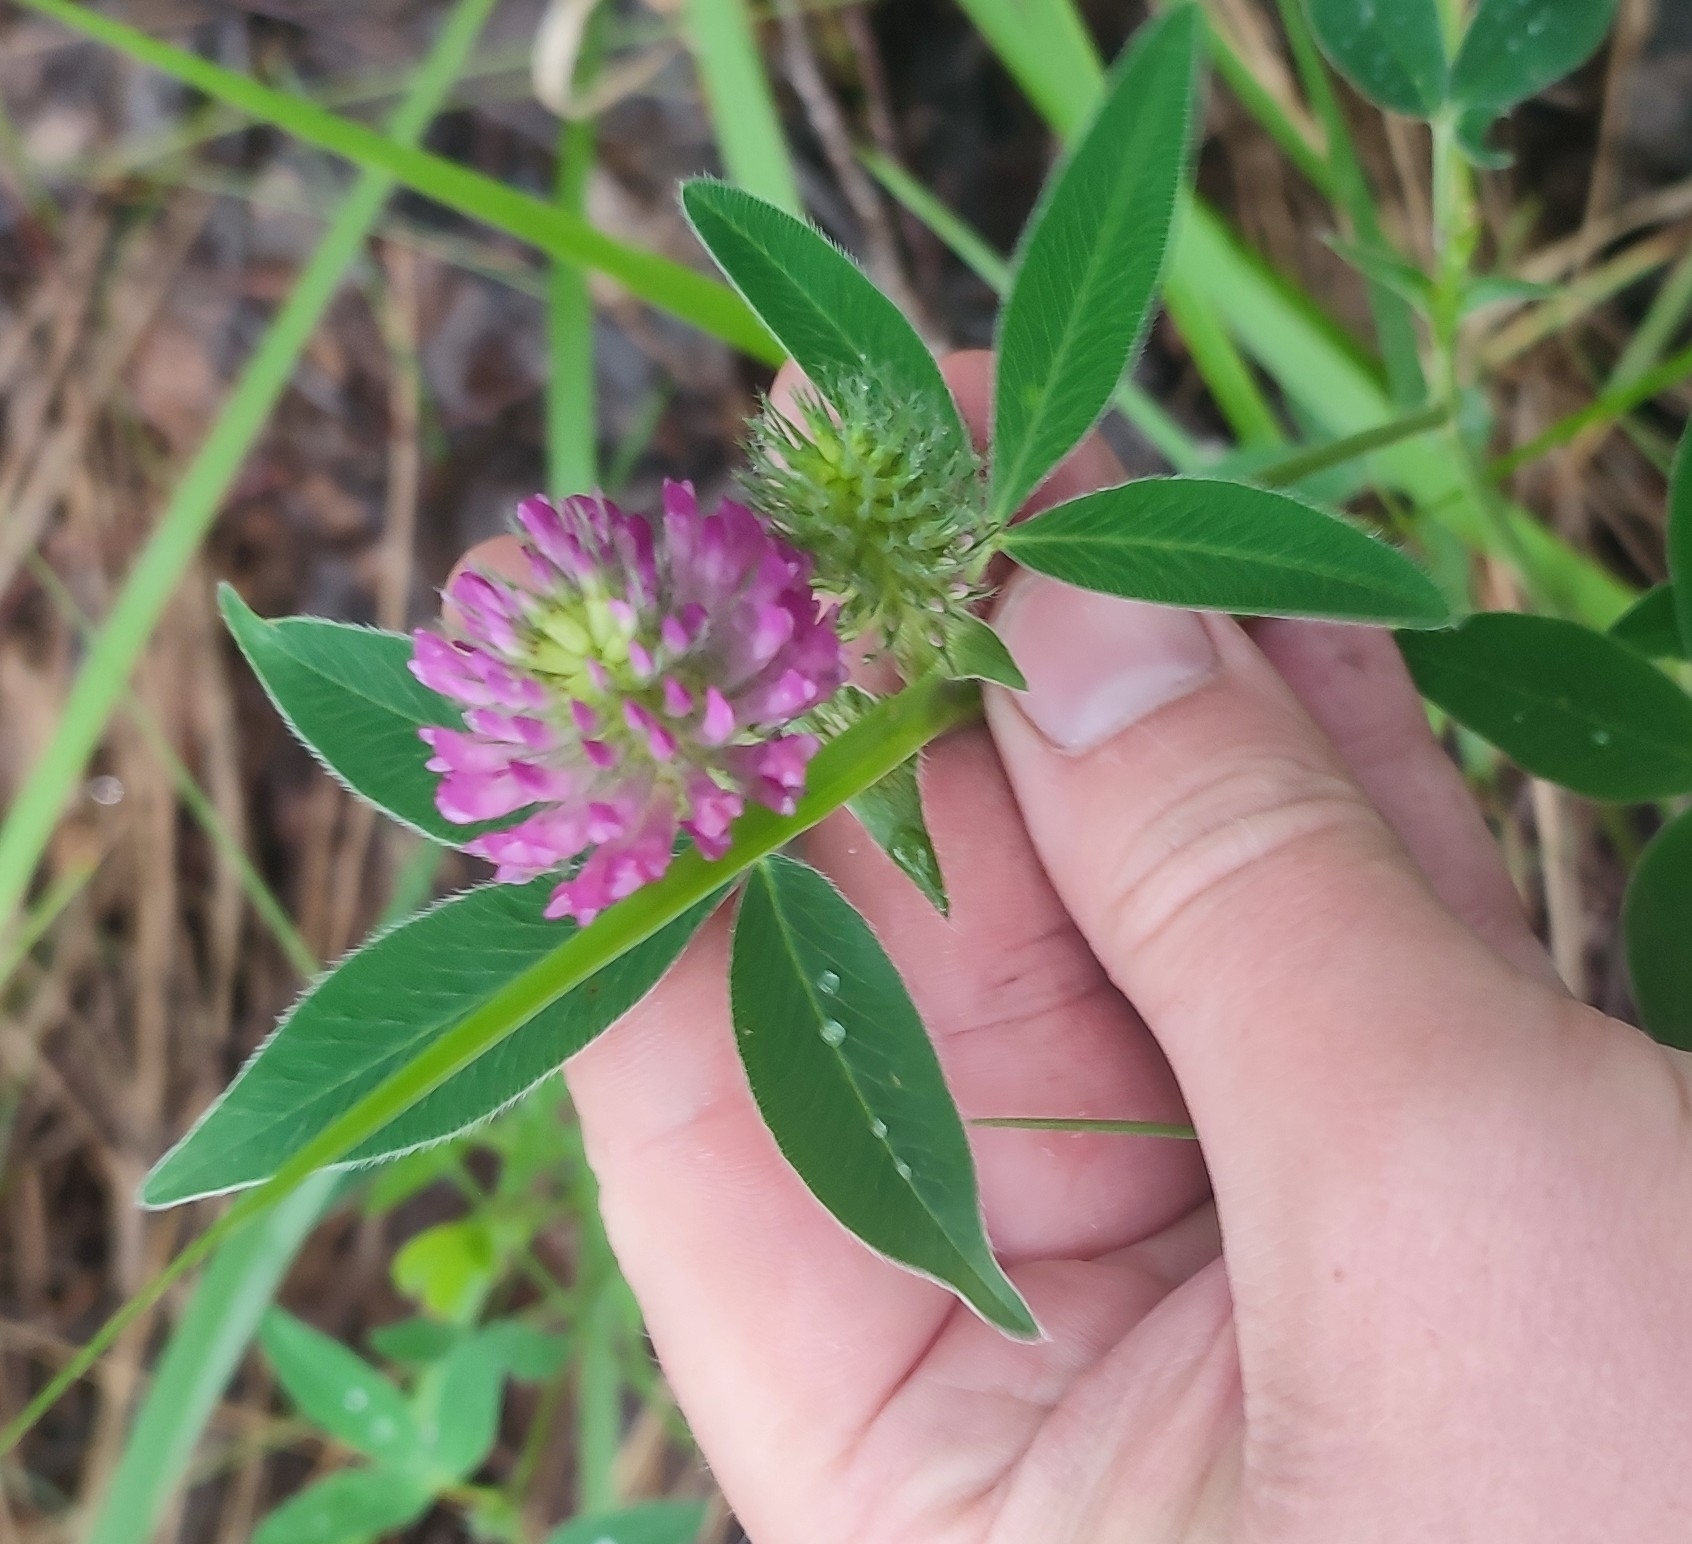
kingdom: Plantae
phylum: Tracheophyta
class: Magnoliopsida
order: Fabales
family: Fabaceae
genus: Trifolium
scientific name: Trifolium medium
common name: Zigzag clover
